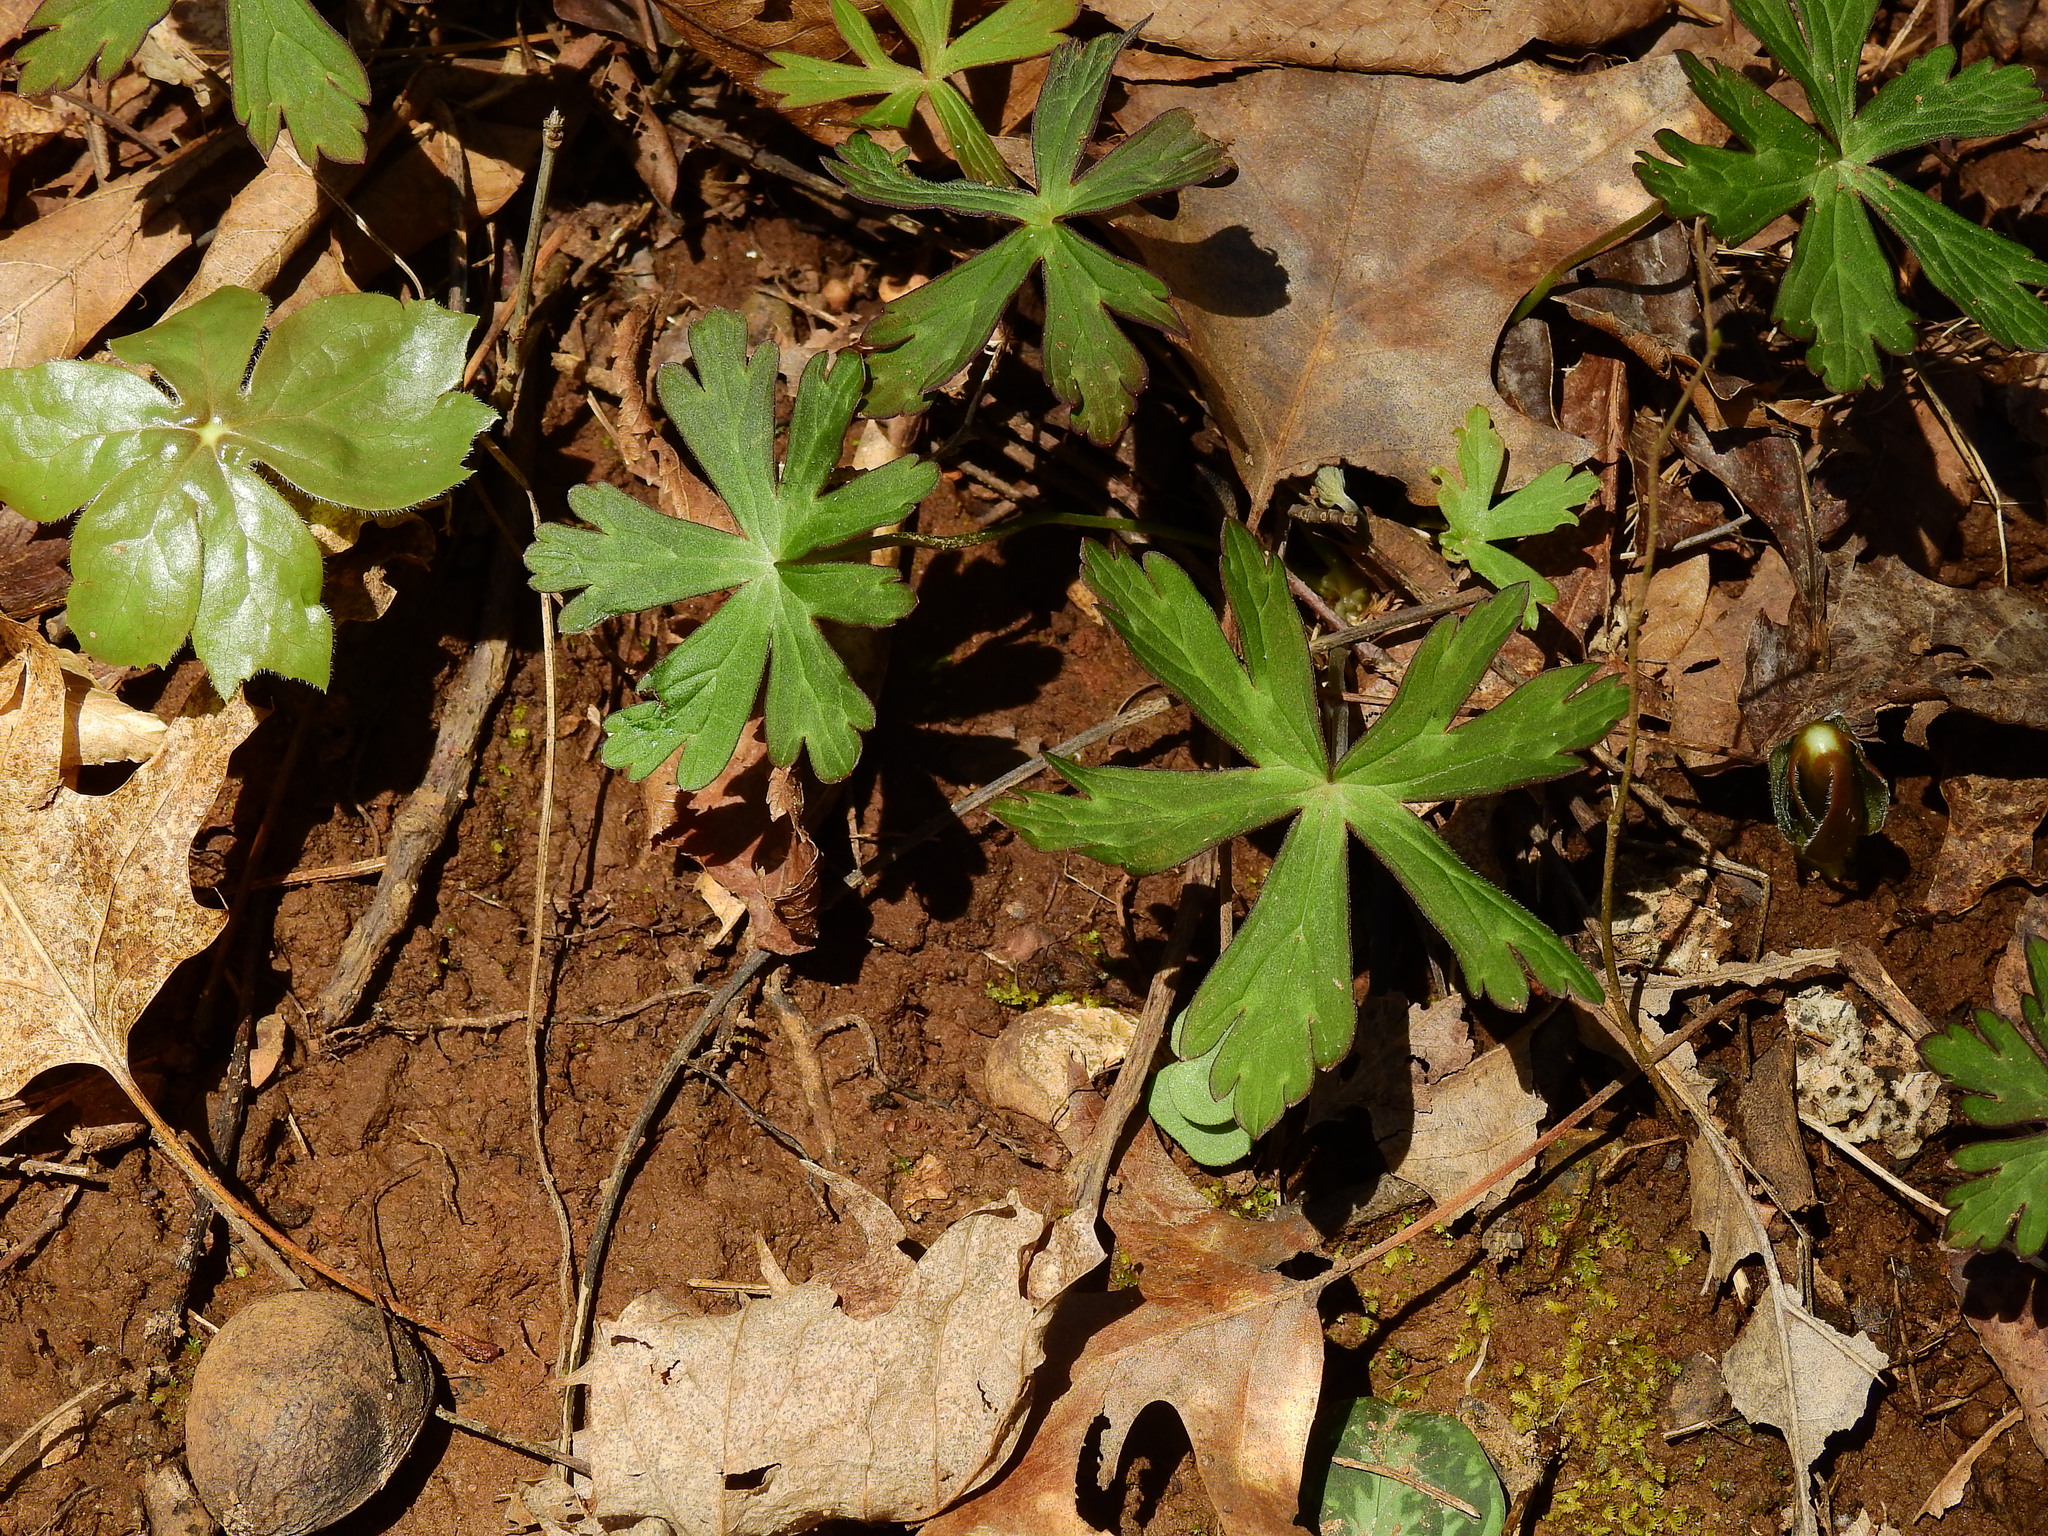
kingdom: Plantae
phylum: Tracheophyta
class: Magnoliopsida
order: Geraniales
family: Geraniaceae
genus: Geranium
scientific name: Geranium maculatum
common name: Spotted geranium
